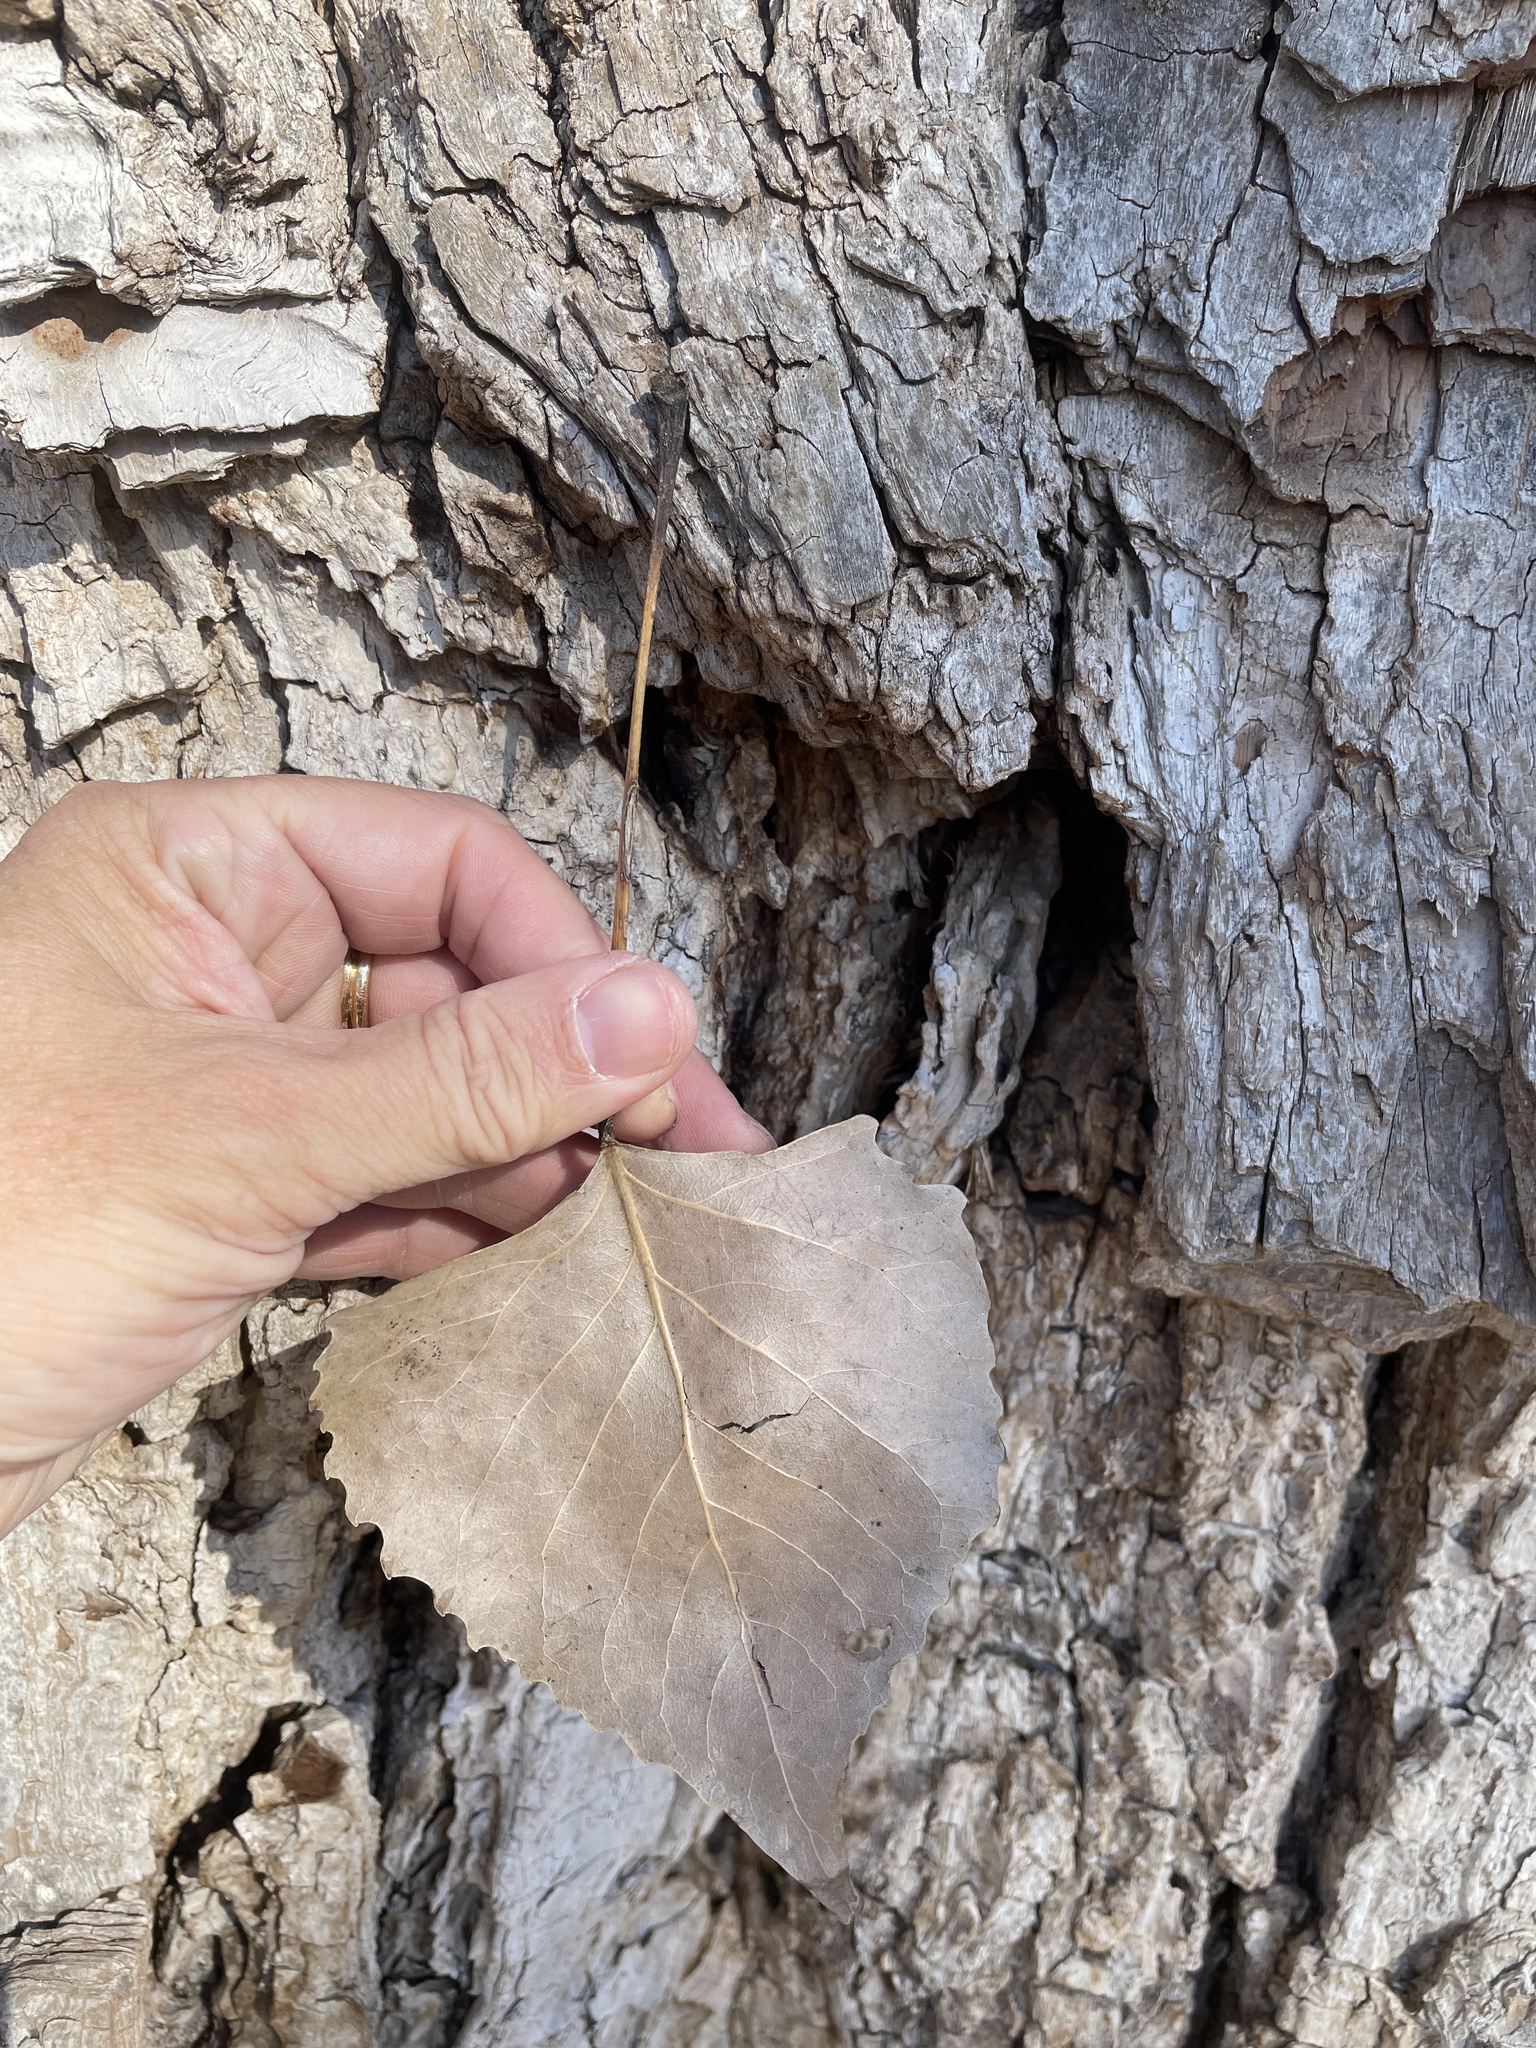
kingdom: Plantae
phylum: Tracheophyta
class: Magnoliopsida
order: Malpighiales
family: Salicaceae
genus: Populus
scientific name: Populus deltoides
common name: Eastern cottonwood
